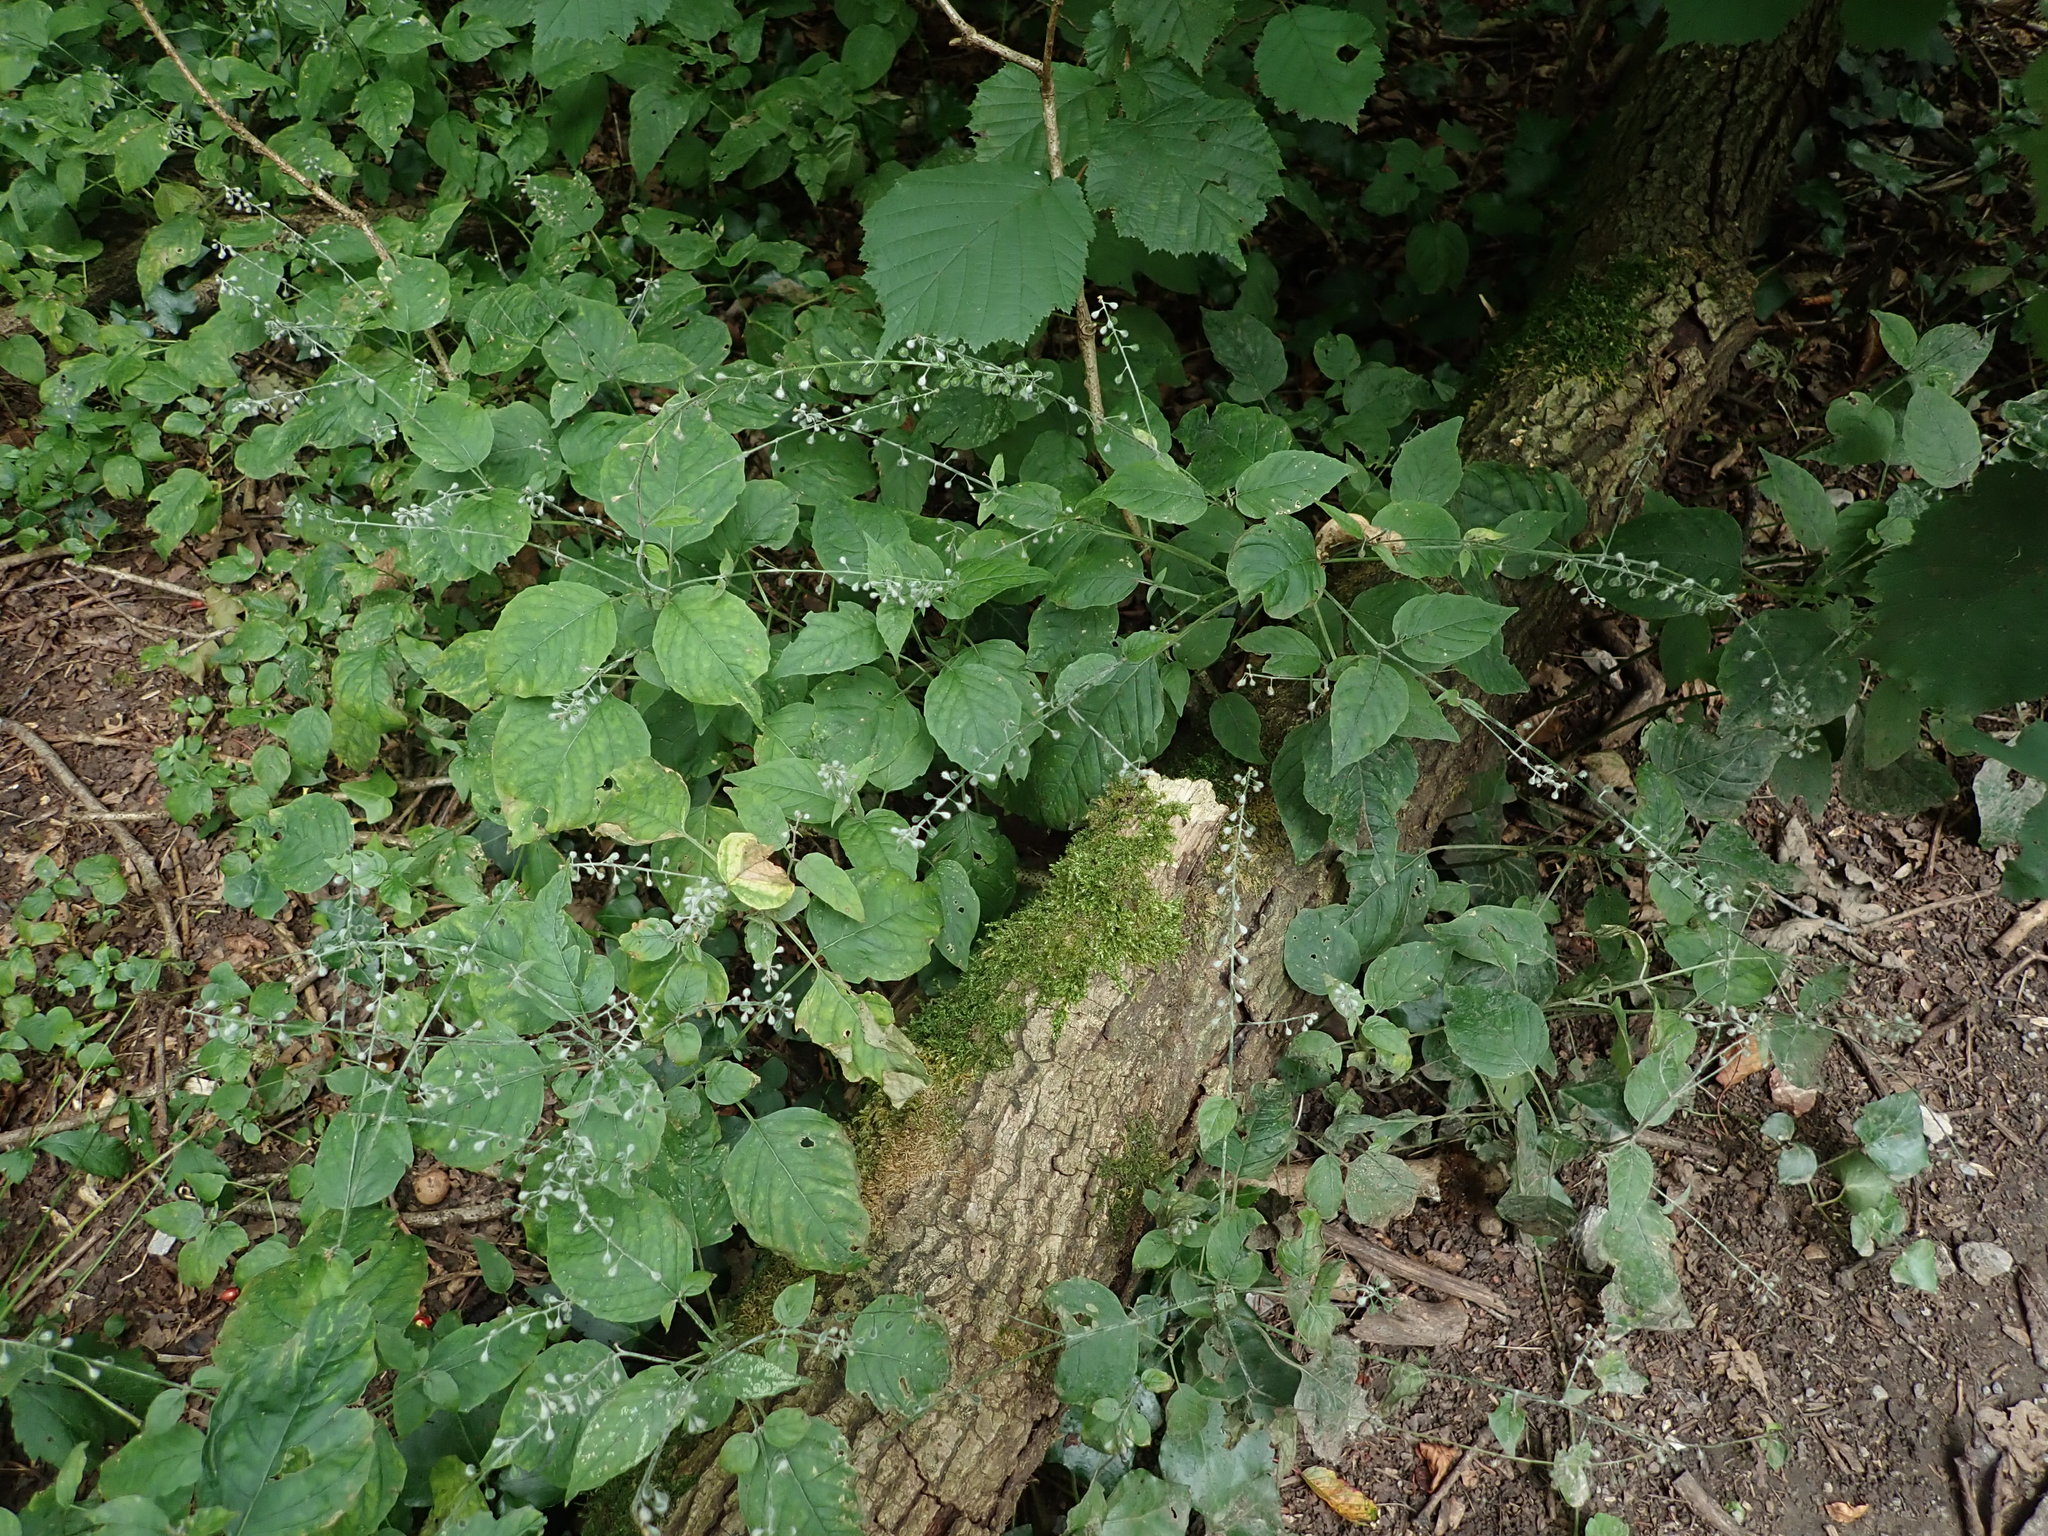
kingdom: Plantae
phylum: Tracheophyta
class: Magnoliopsida
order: Myrtales
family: Onagraceae
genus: Circaea
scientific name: Circaea lutetiana
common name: Enchanter's-nightshade
